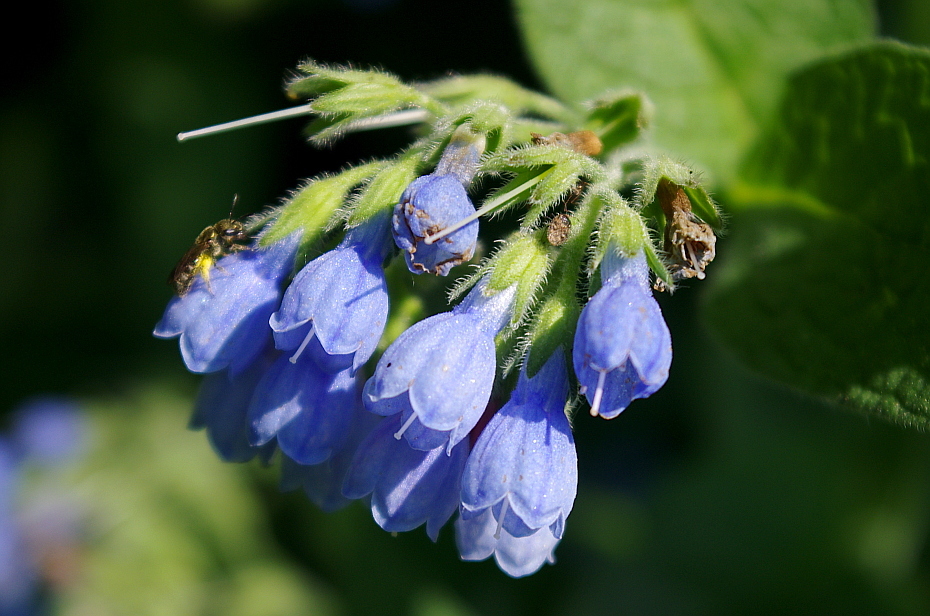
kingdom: Animalia
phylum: Arthropoda
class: Insecta
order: Hymenoptera
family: Halictidae
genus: Dialictus
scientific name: Dialictus
